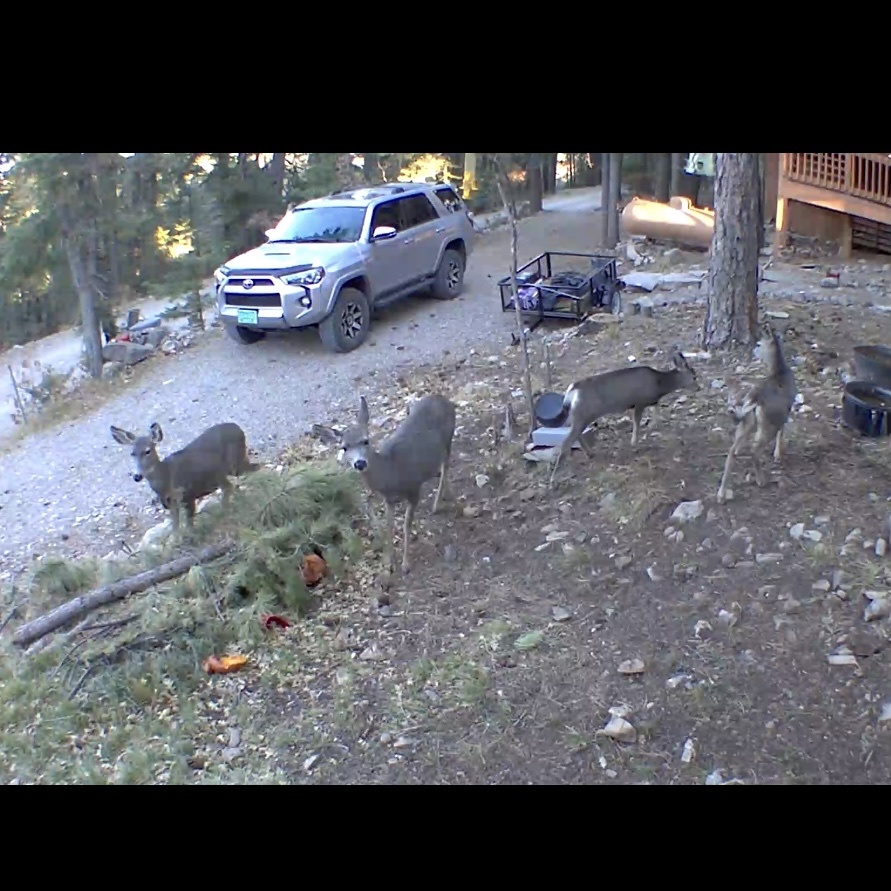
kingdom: Animalia
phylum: Chordata
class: Mammalia
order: Artiodactyla
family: Cervidae
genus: Odocoileus
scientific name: Odocoileus hemionus
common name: Mule deer
